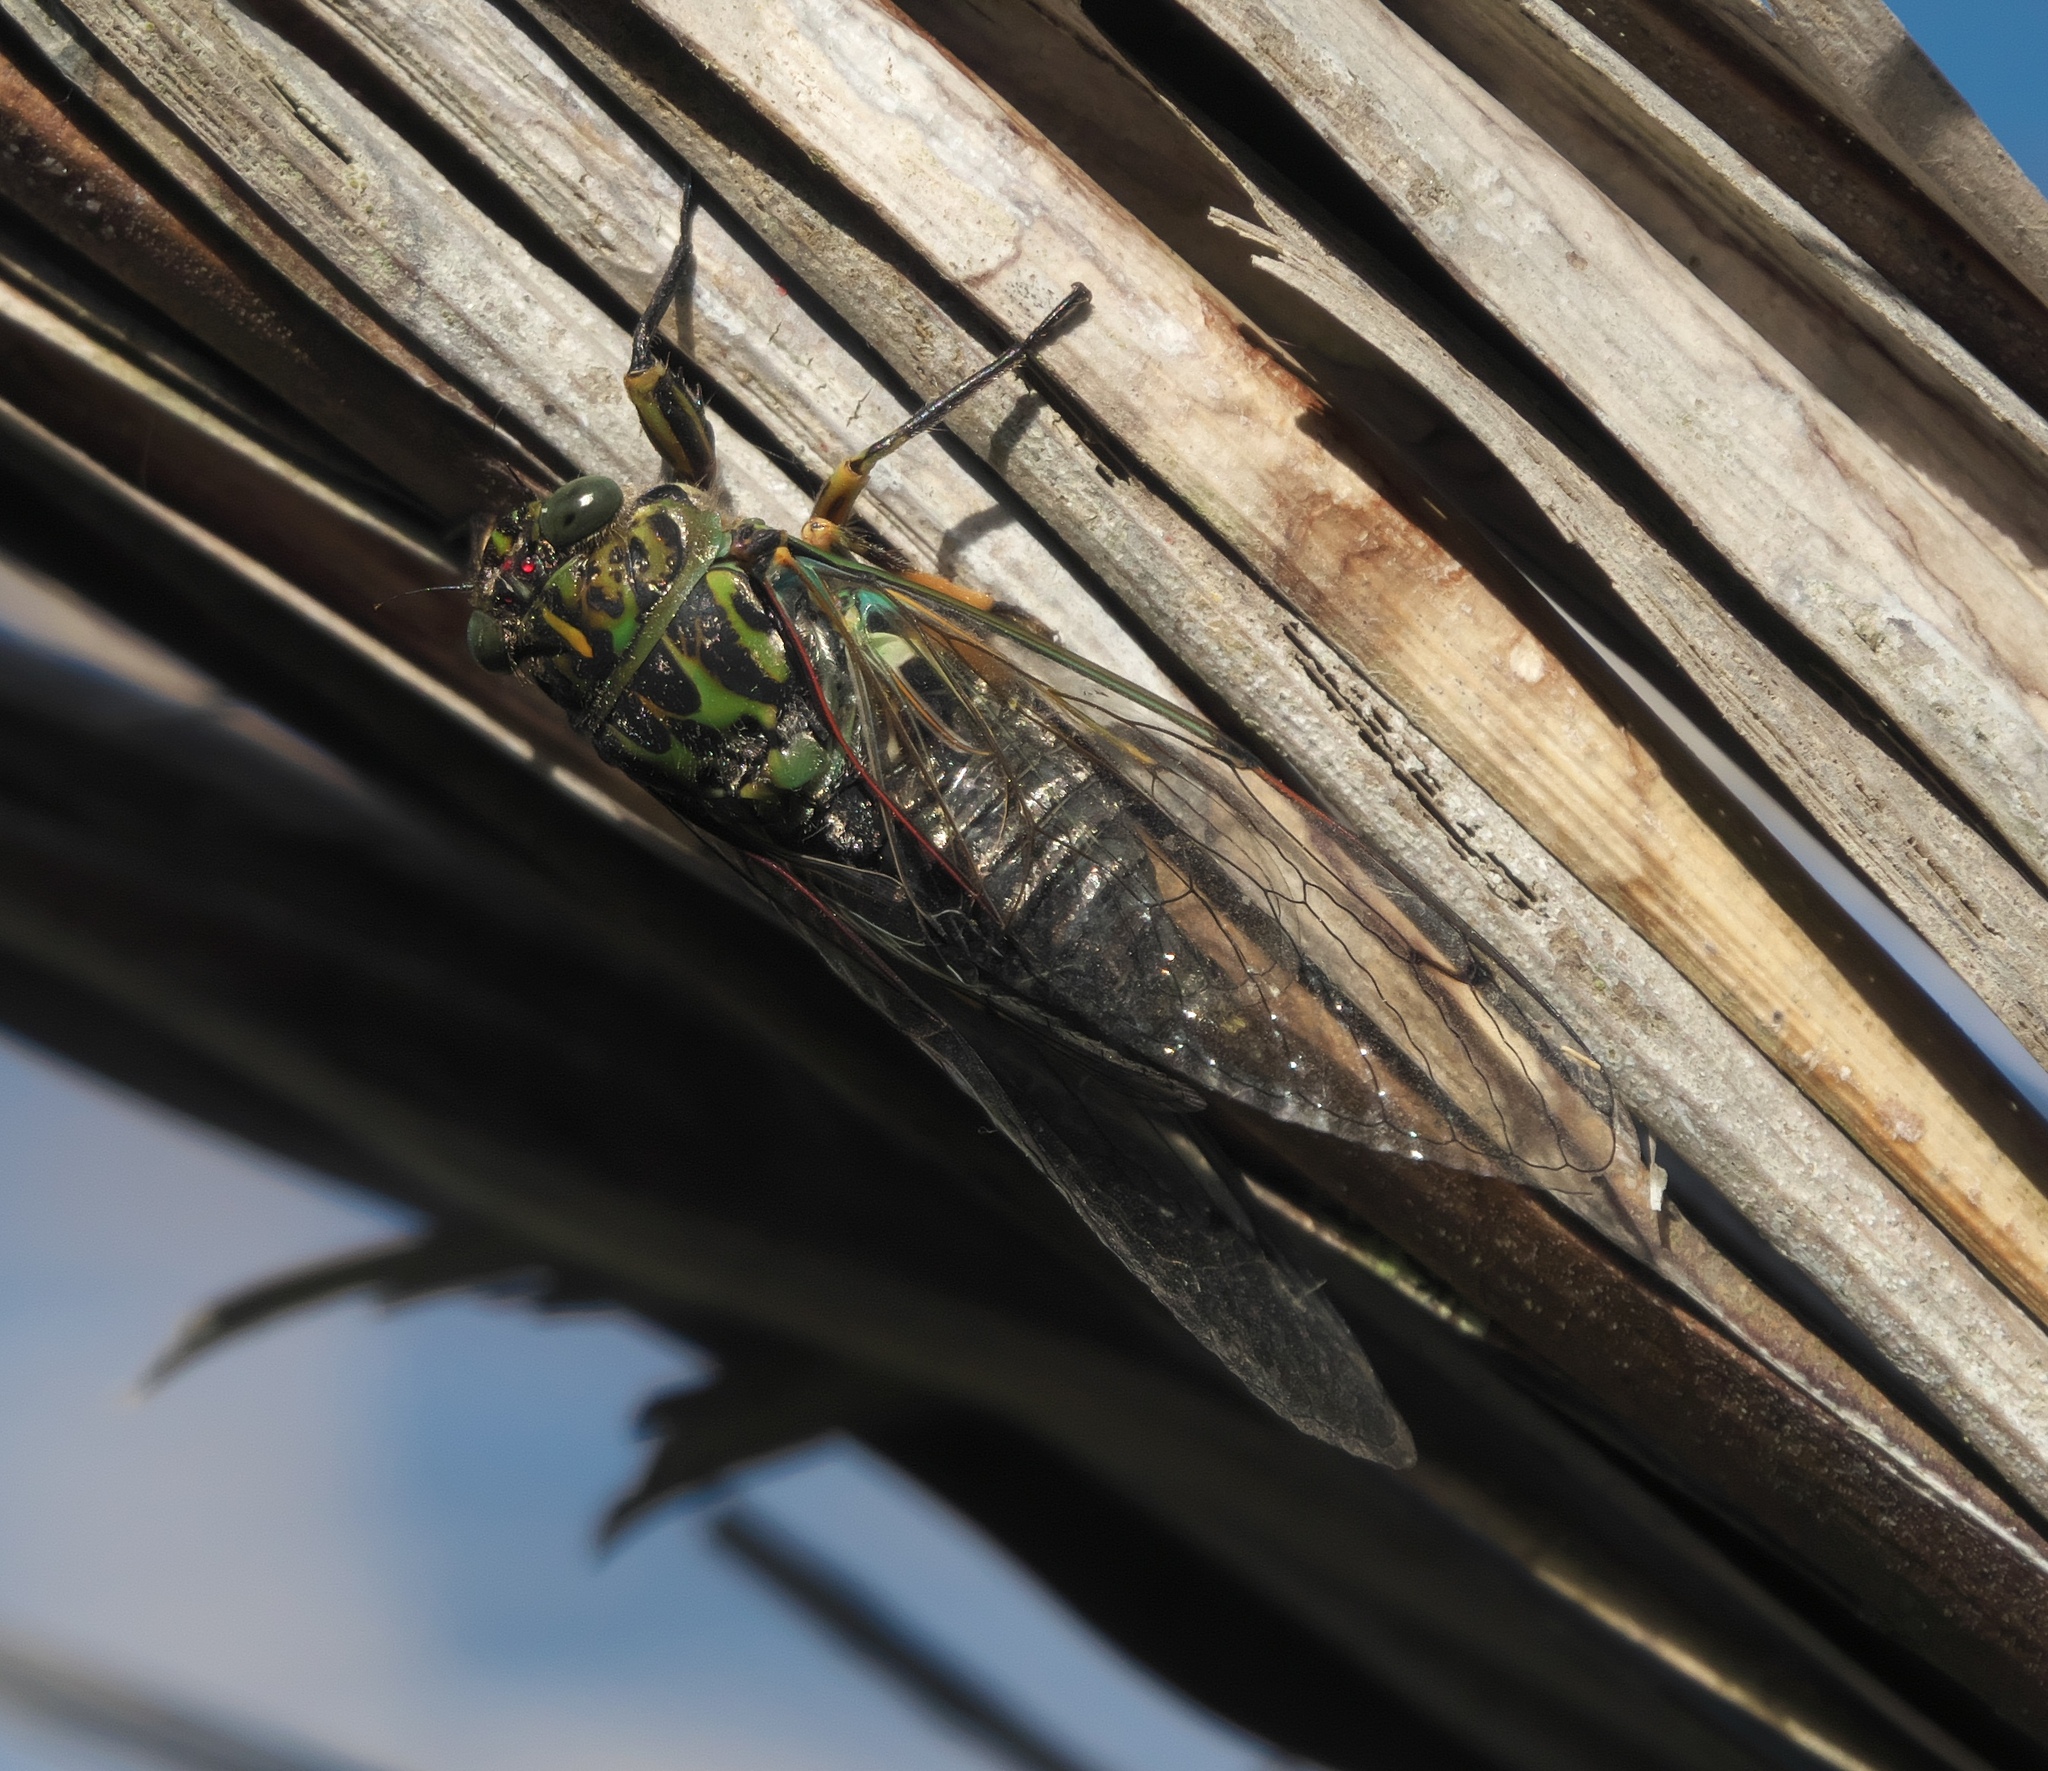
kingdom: Animalia
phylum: Arthropoda
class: Insecta
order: Hemiptera
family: Cicadidae
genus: Amphipsalta
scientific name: Amphipsalta zelandica
